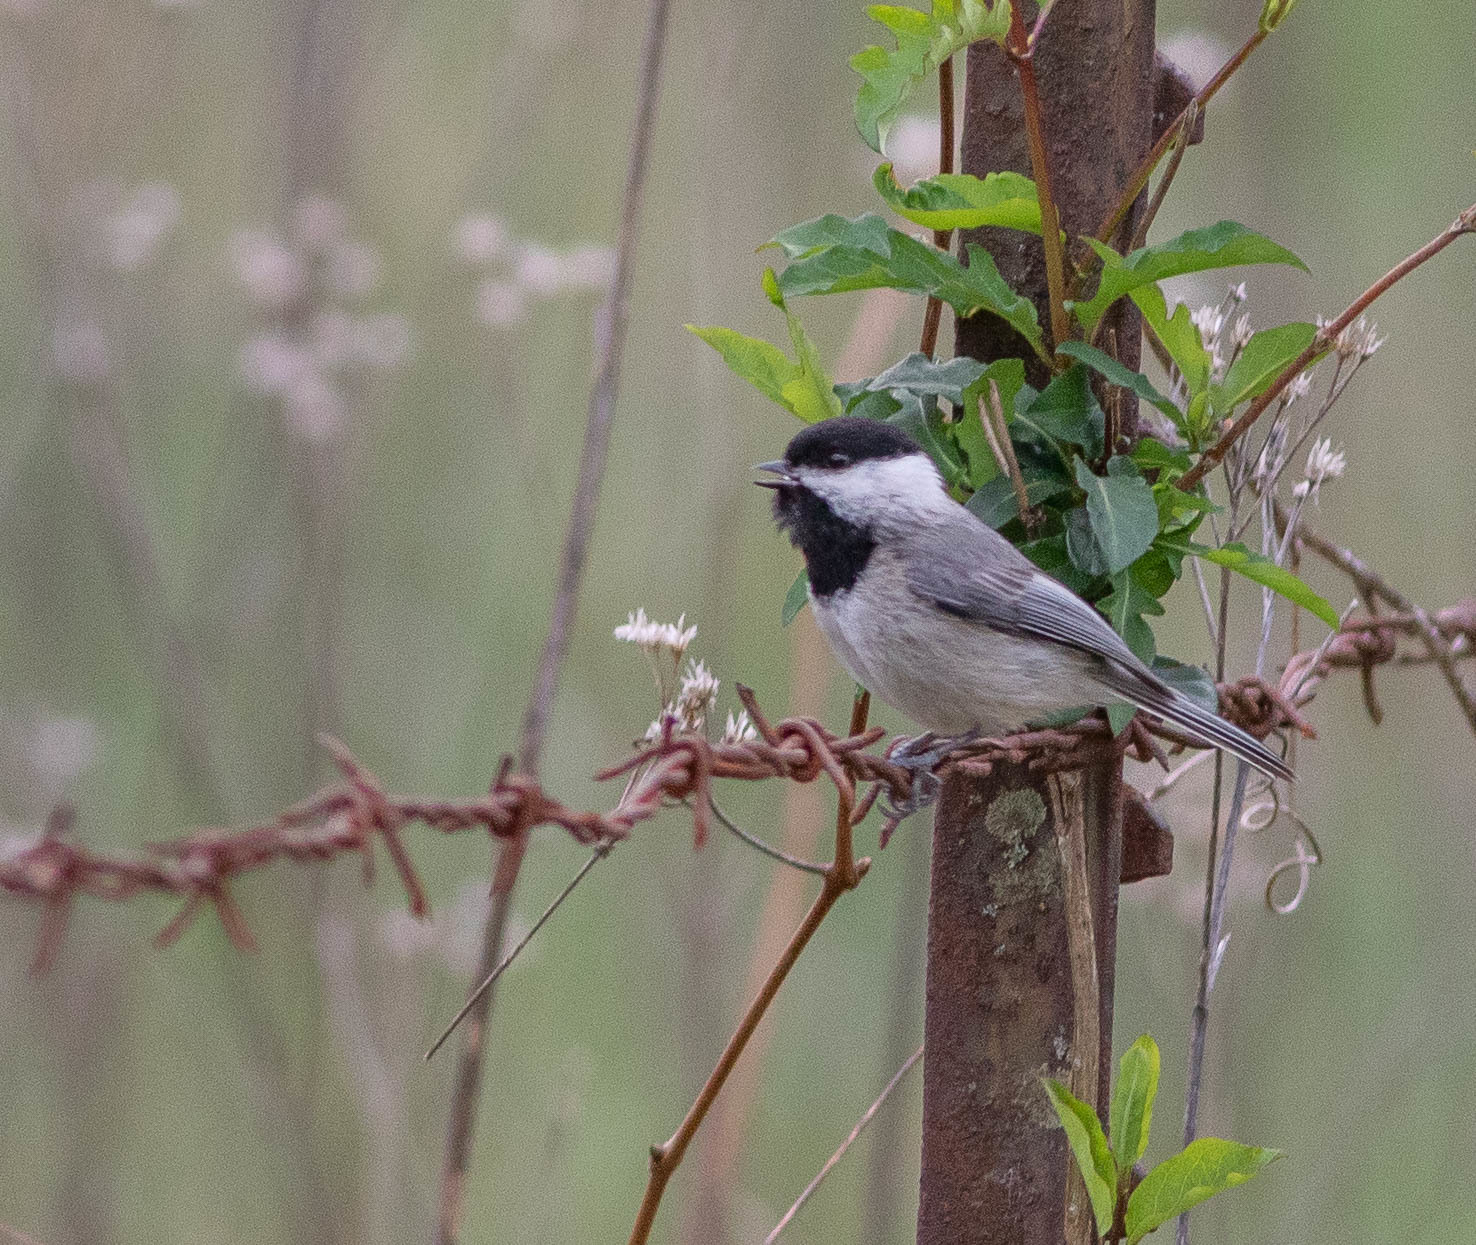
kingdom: Animalia
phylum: Chordata
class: Aves
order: Passeriformes
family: Paridae
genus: Poecile
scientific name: Poecile carolinensis
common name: Carolina chickadee
